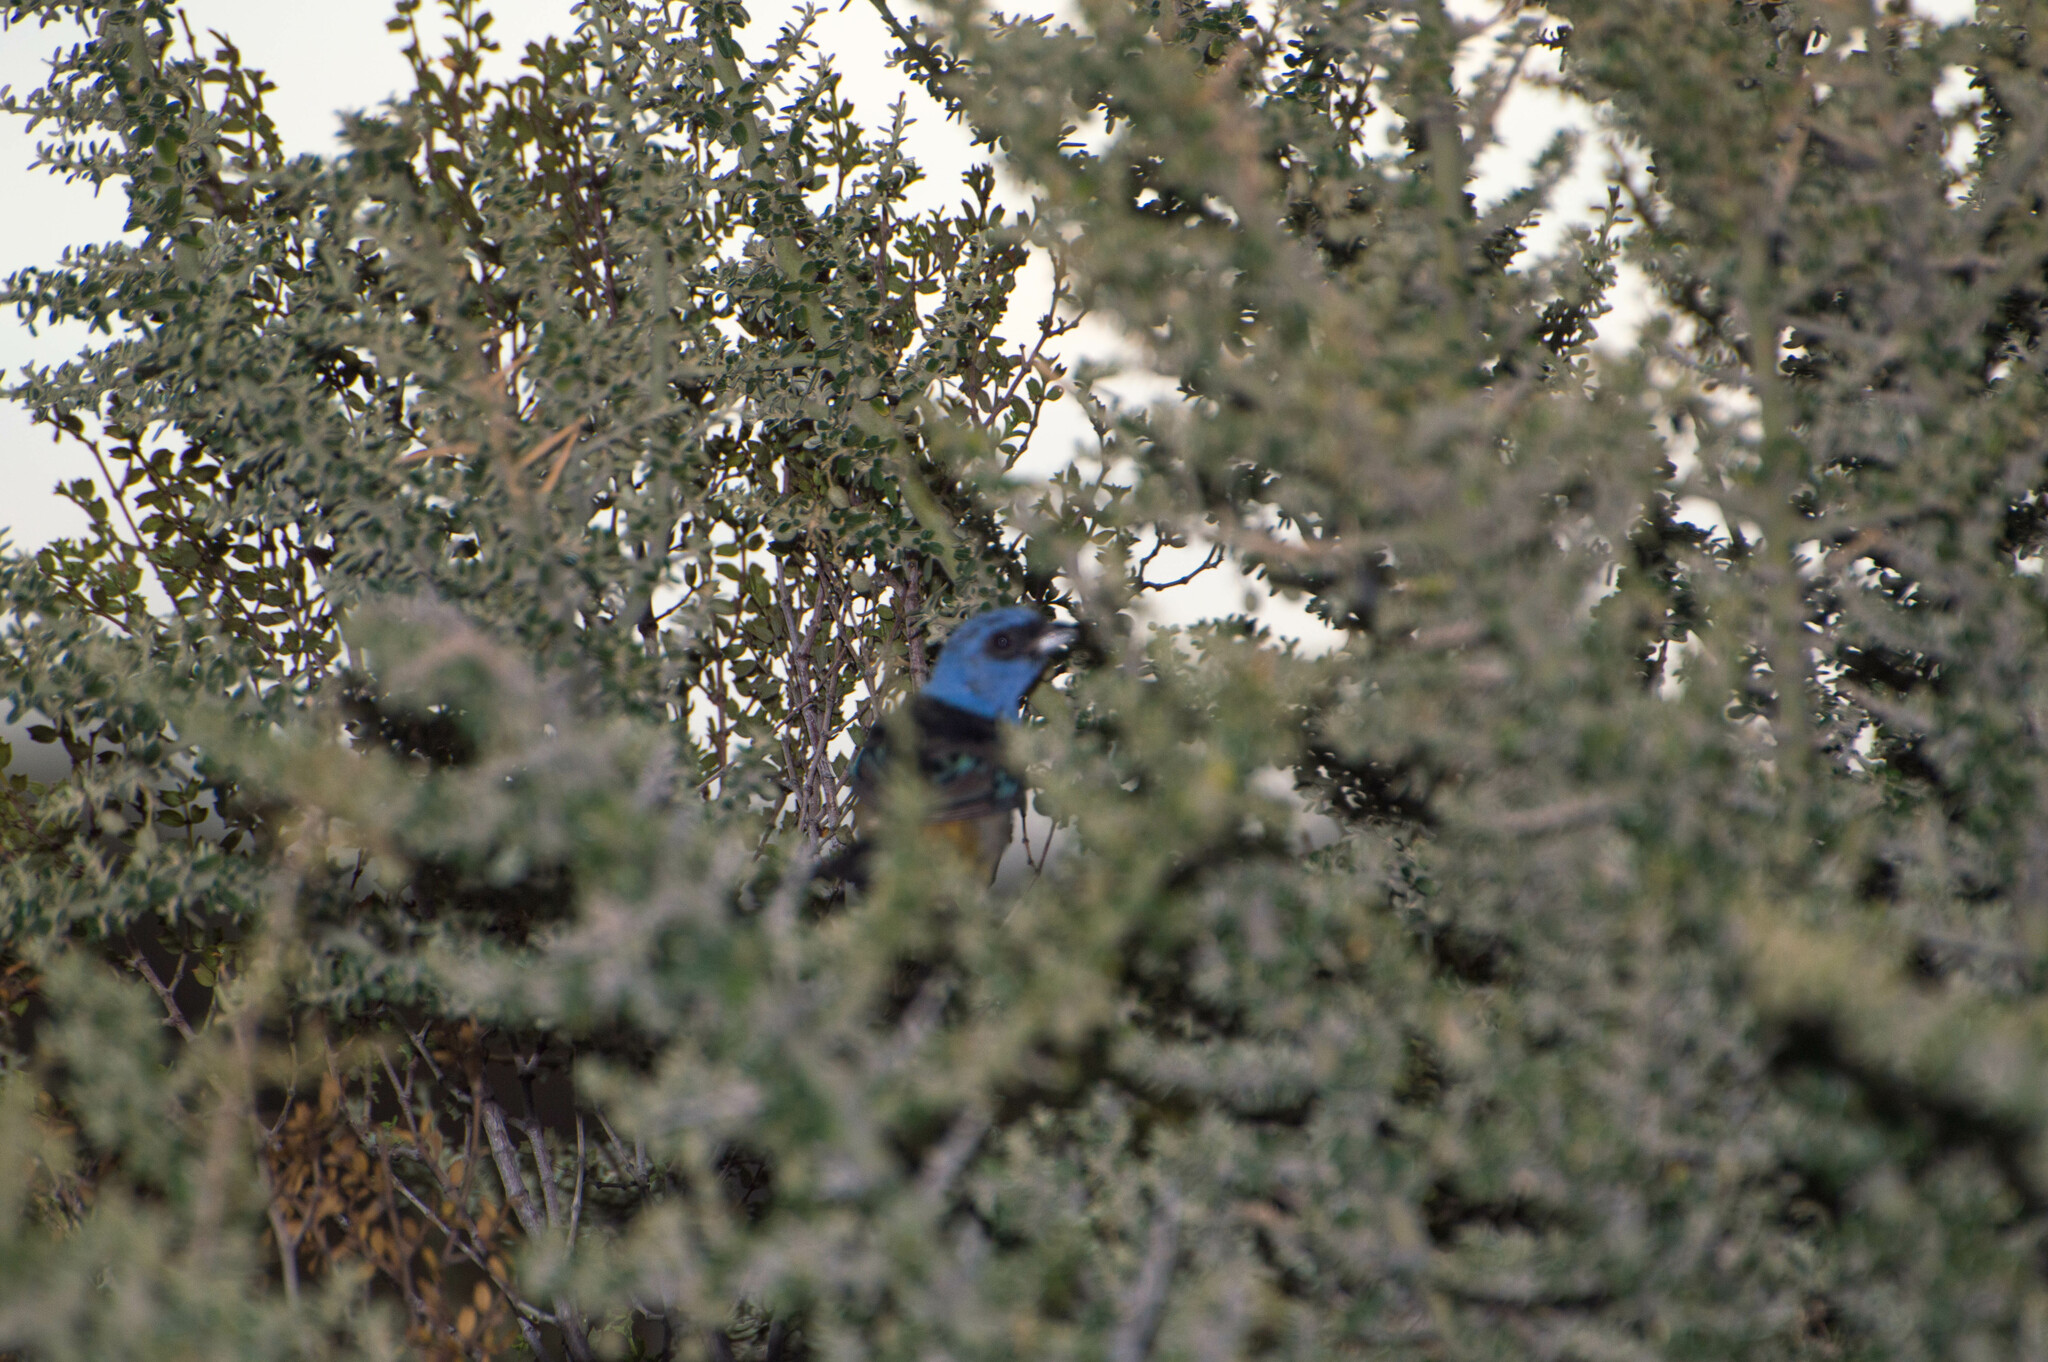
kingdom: Animalia
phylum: Chordata
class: Aves
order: Passeriformes
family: Thraupidae
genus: Rauenia
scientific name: Rauenia bonariensis
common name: Blue-and-yellow tanager
